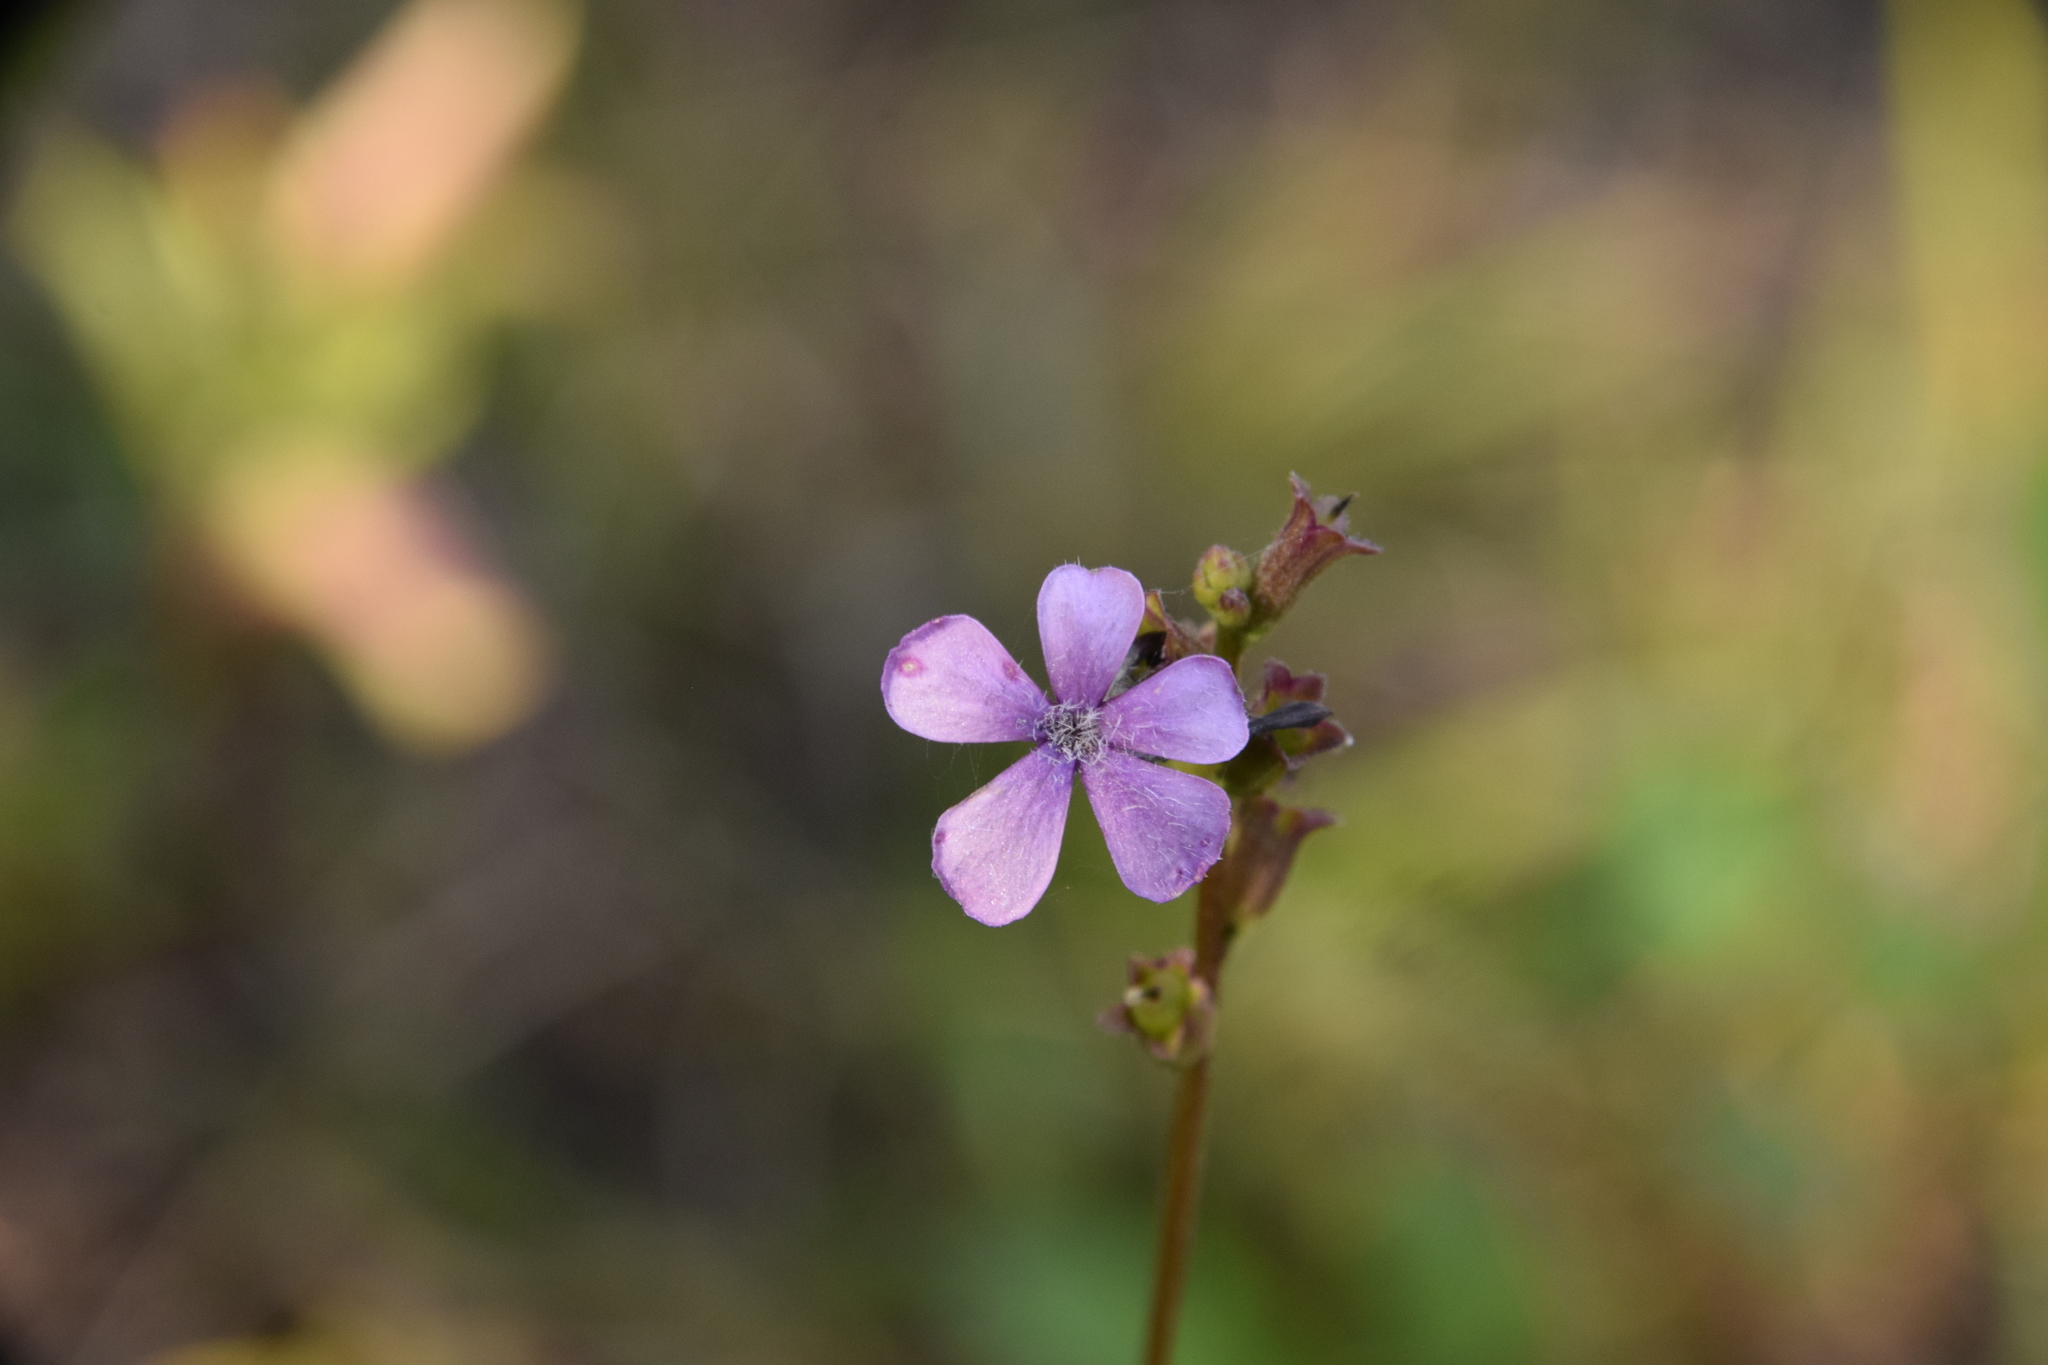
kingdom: Plantae
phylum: Tracheophyta
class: Magnoliopsida
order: Lamiales
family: Orobanchaceae
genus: Buchnera
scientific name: Buchnera floridana
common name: Florida bluehearts
